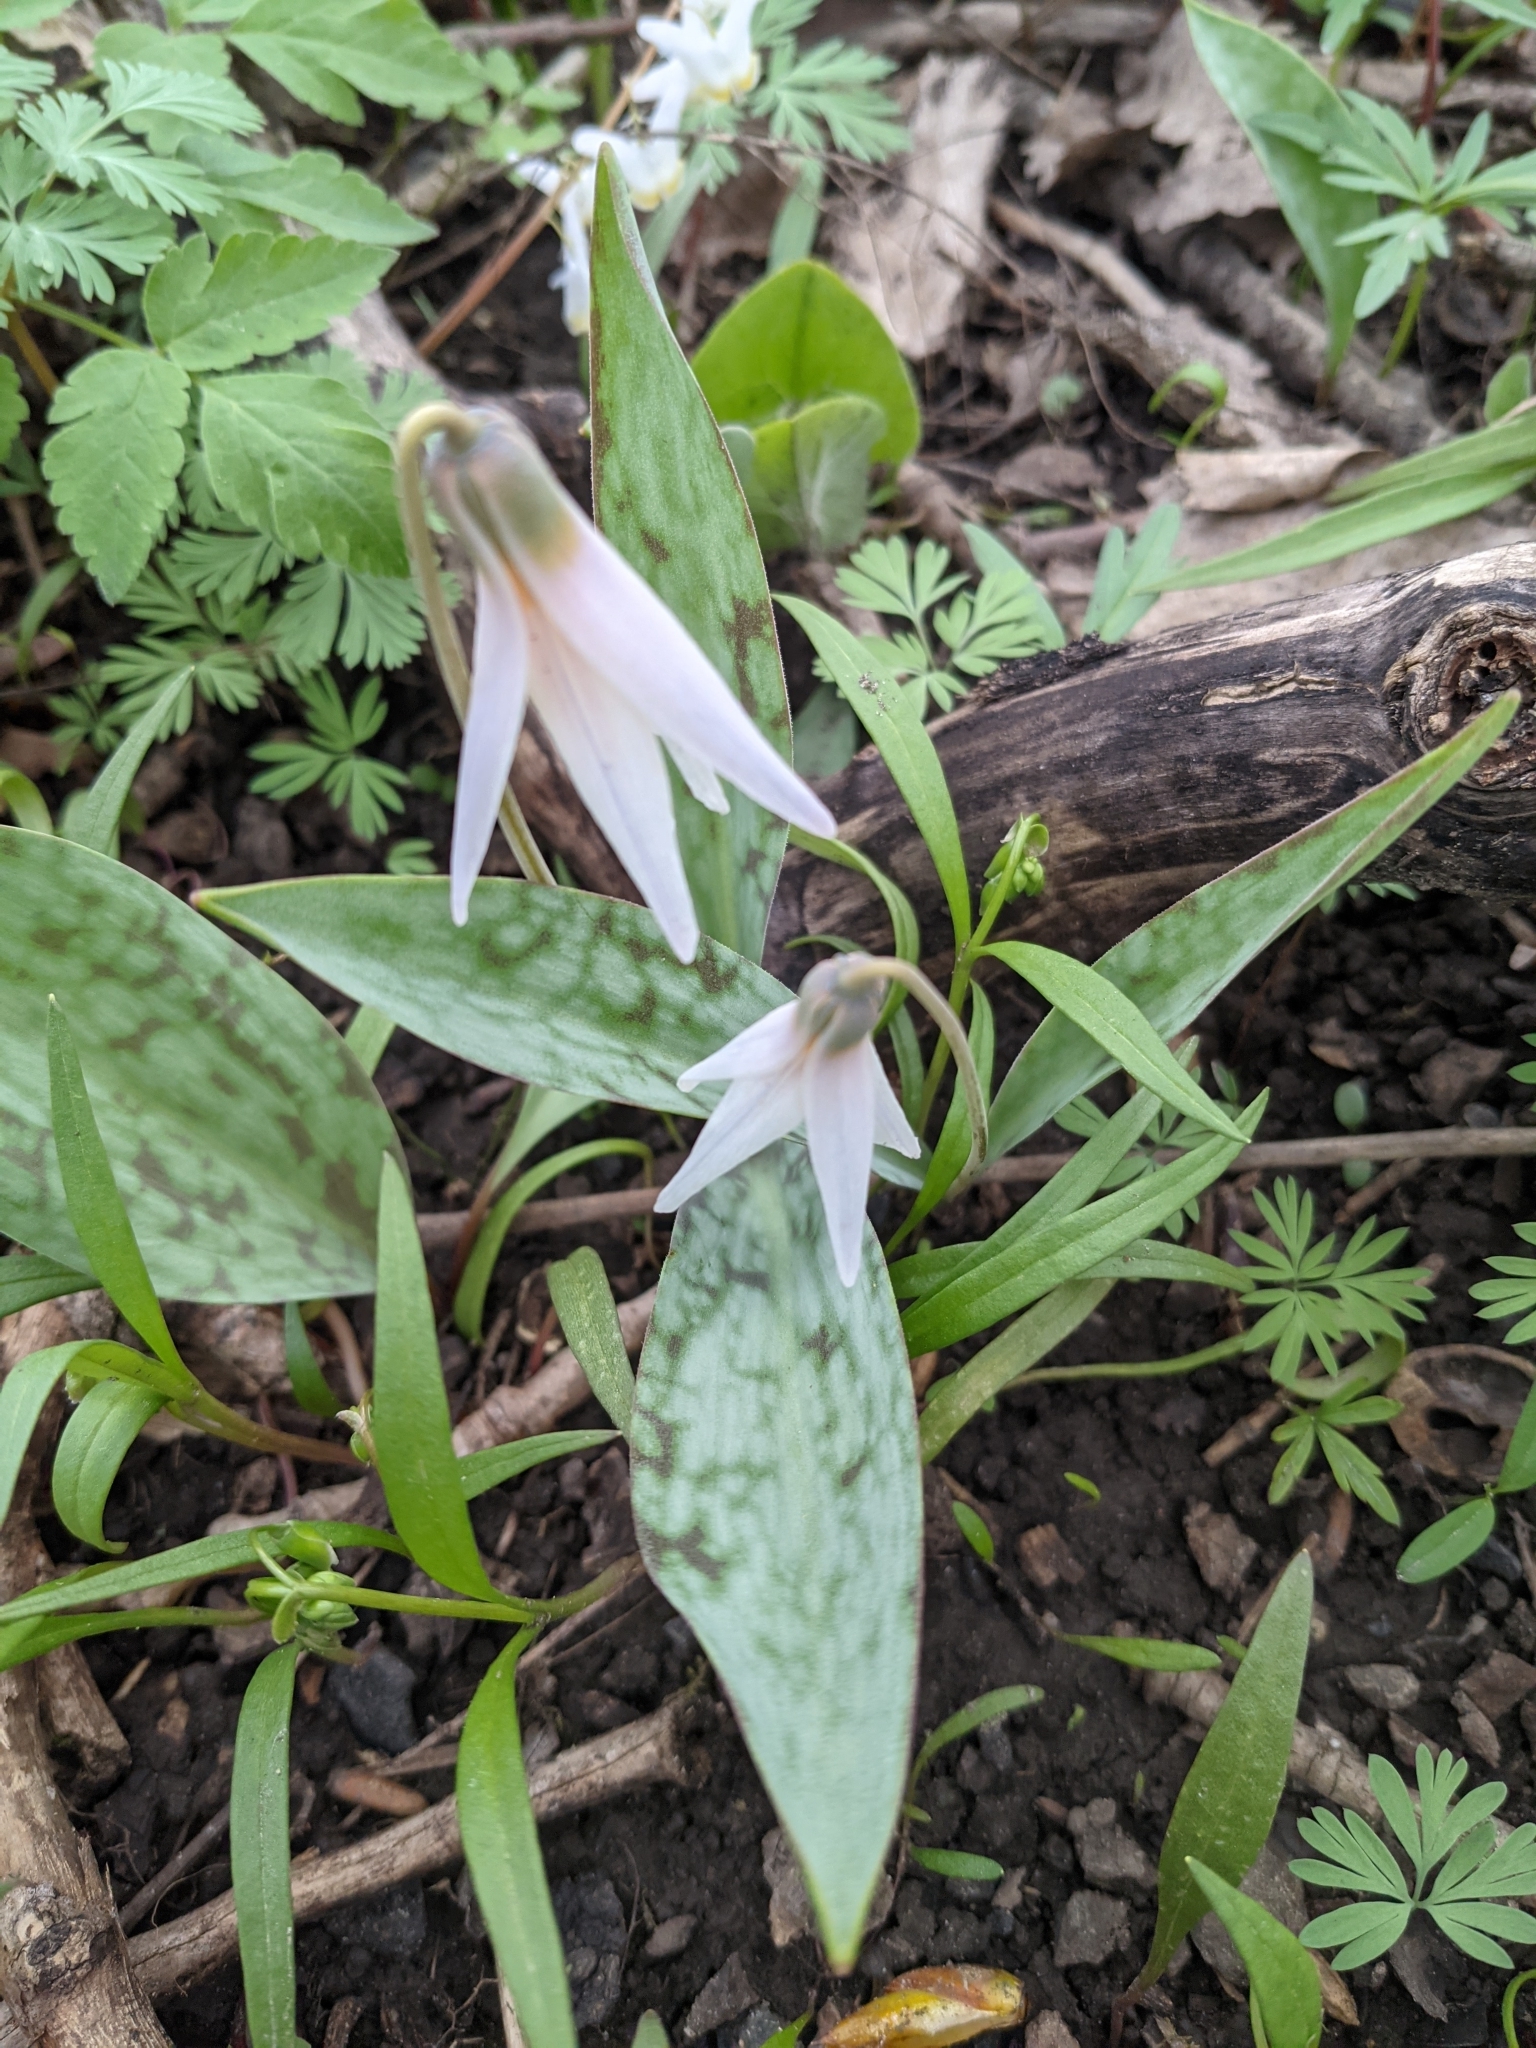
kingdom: Plantae
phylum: Tracheophyta
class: Liliopsida
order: Liliales
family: Liliaceae
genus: Erythronium
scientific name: Erythronium albidum
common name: White trout-lily
